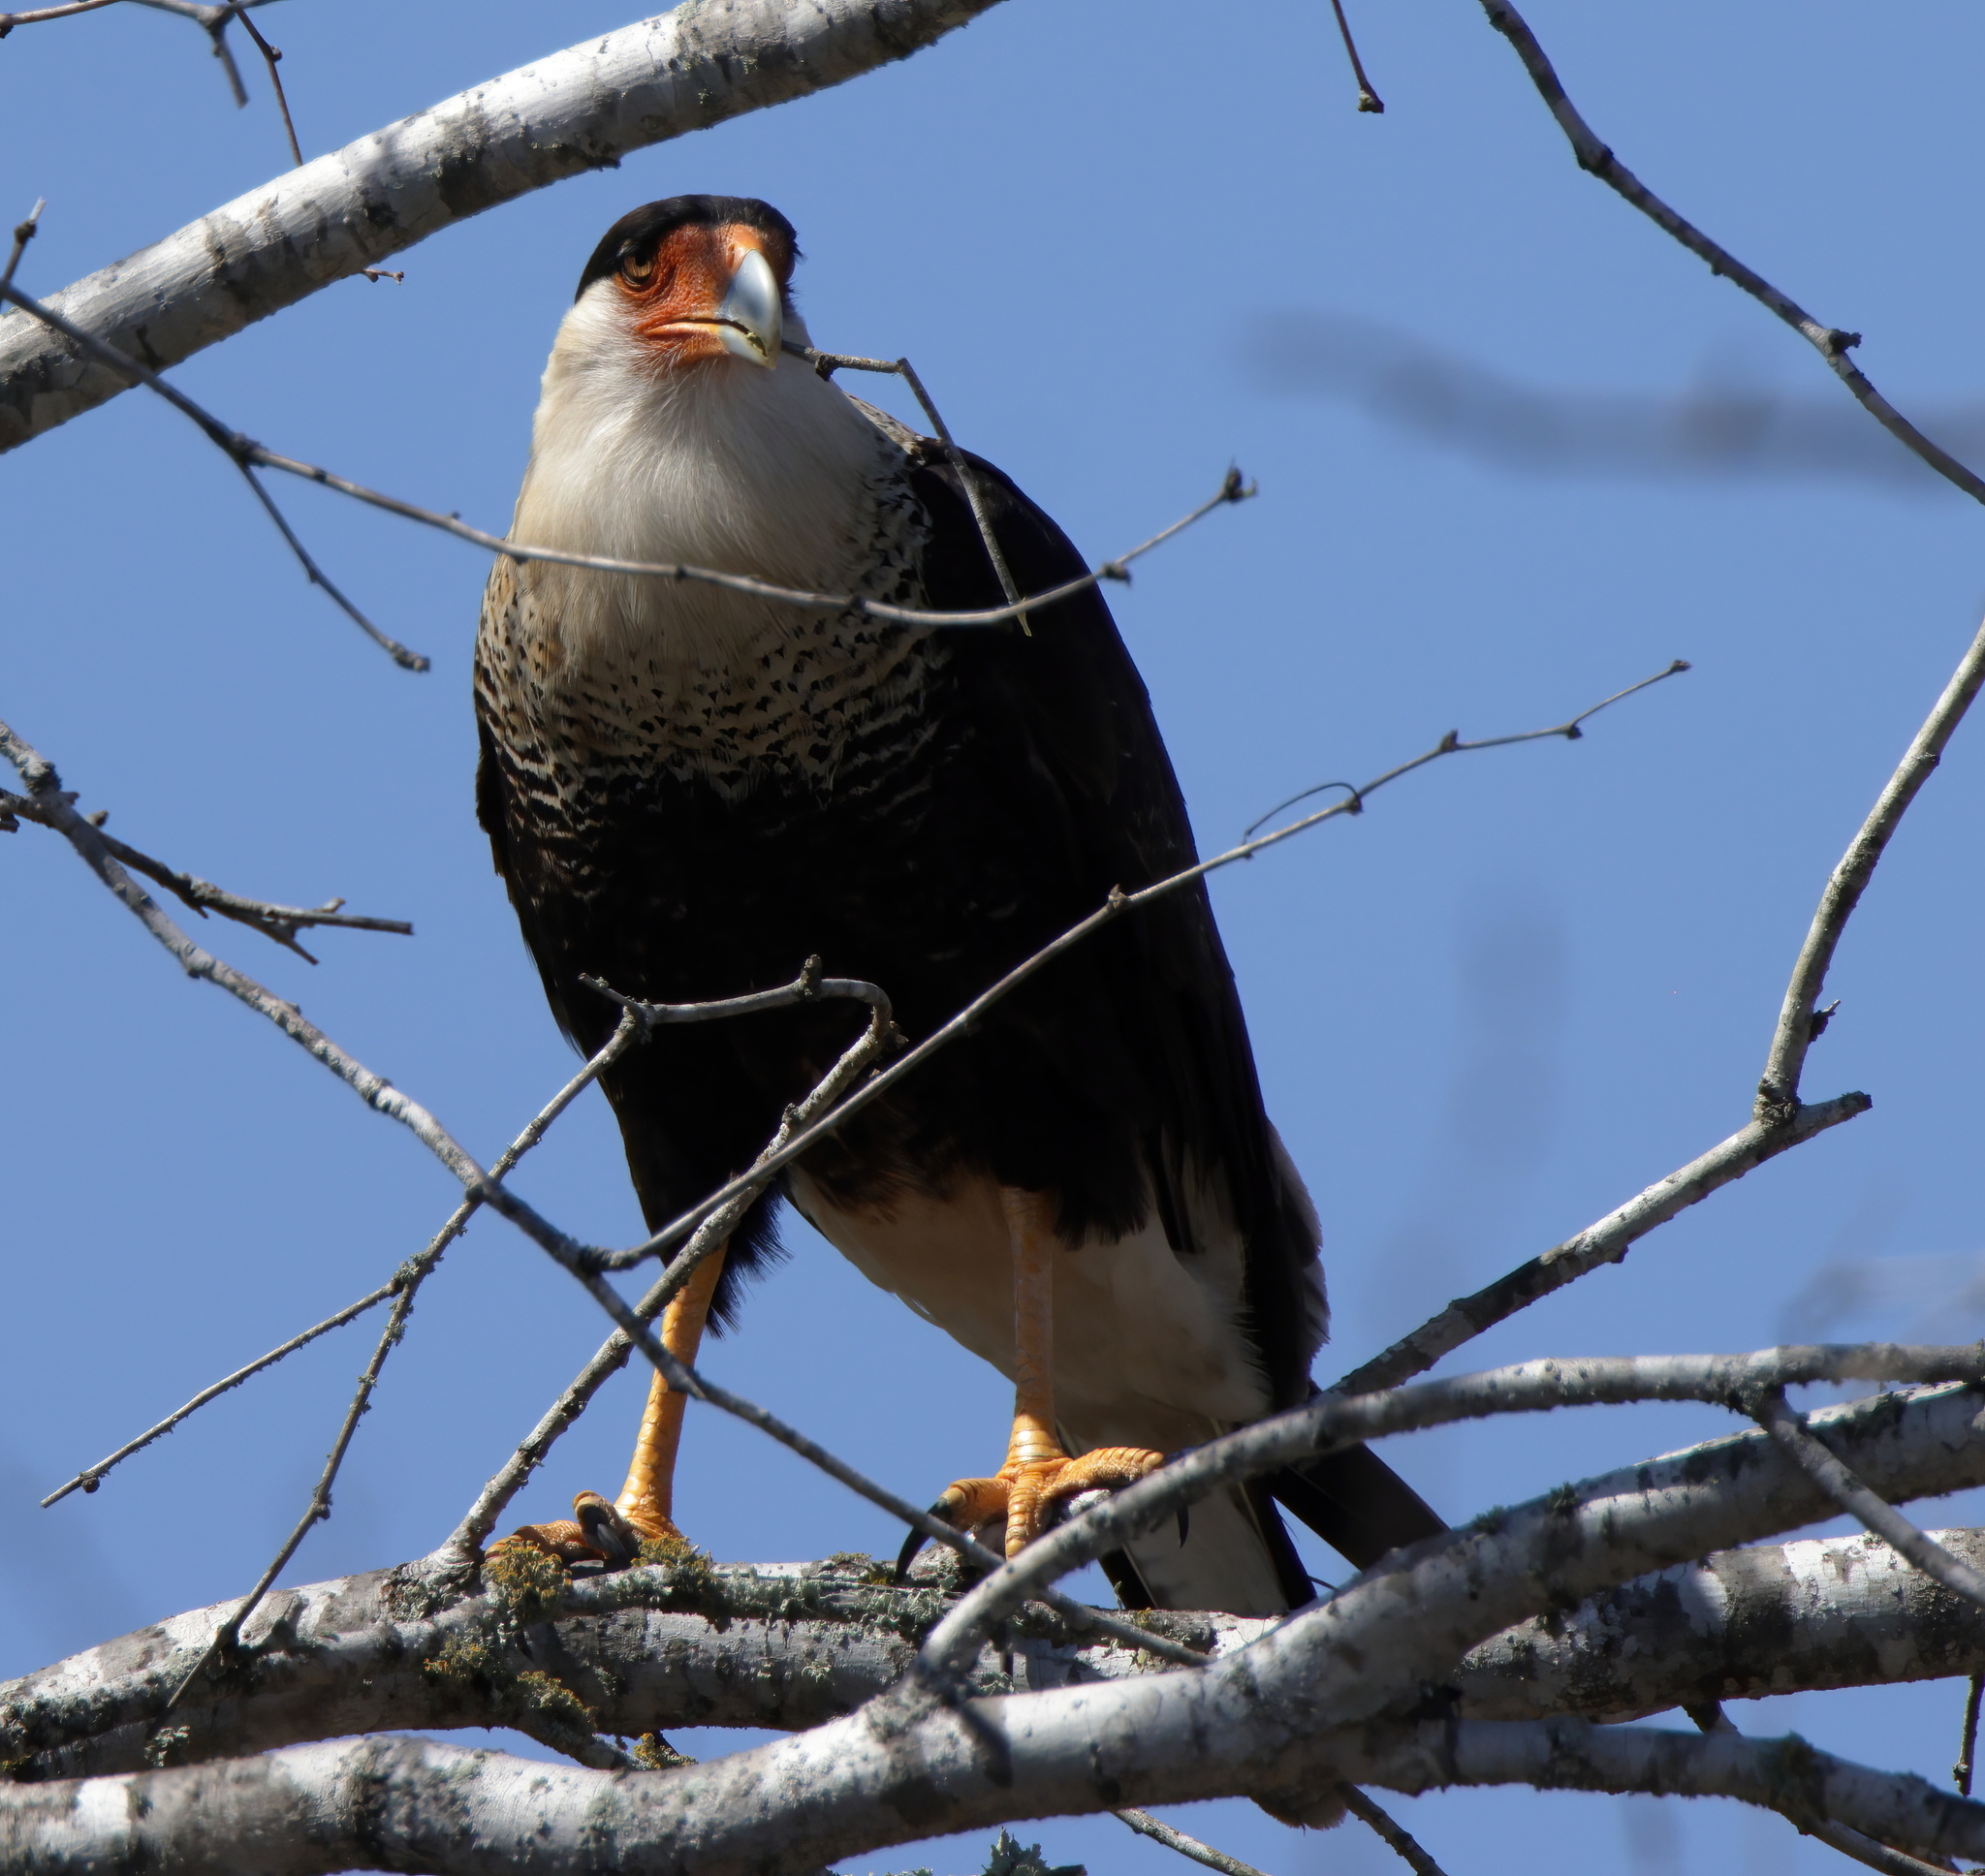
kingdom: Animalia
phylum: Chordata
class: Aves
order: Falconiformes
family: Falconidae
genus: Caracara
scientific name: Caracara plancus
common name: Southern caracara
